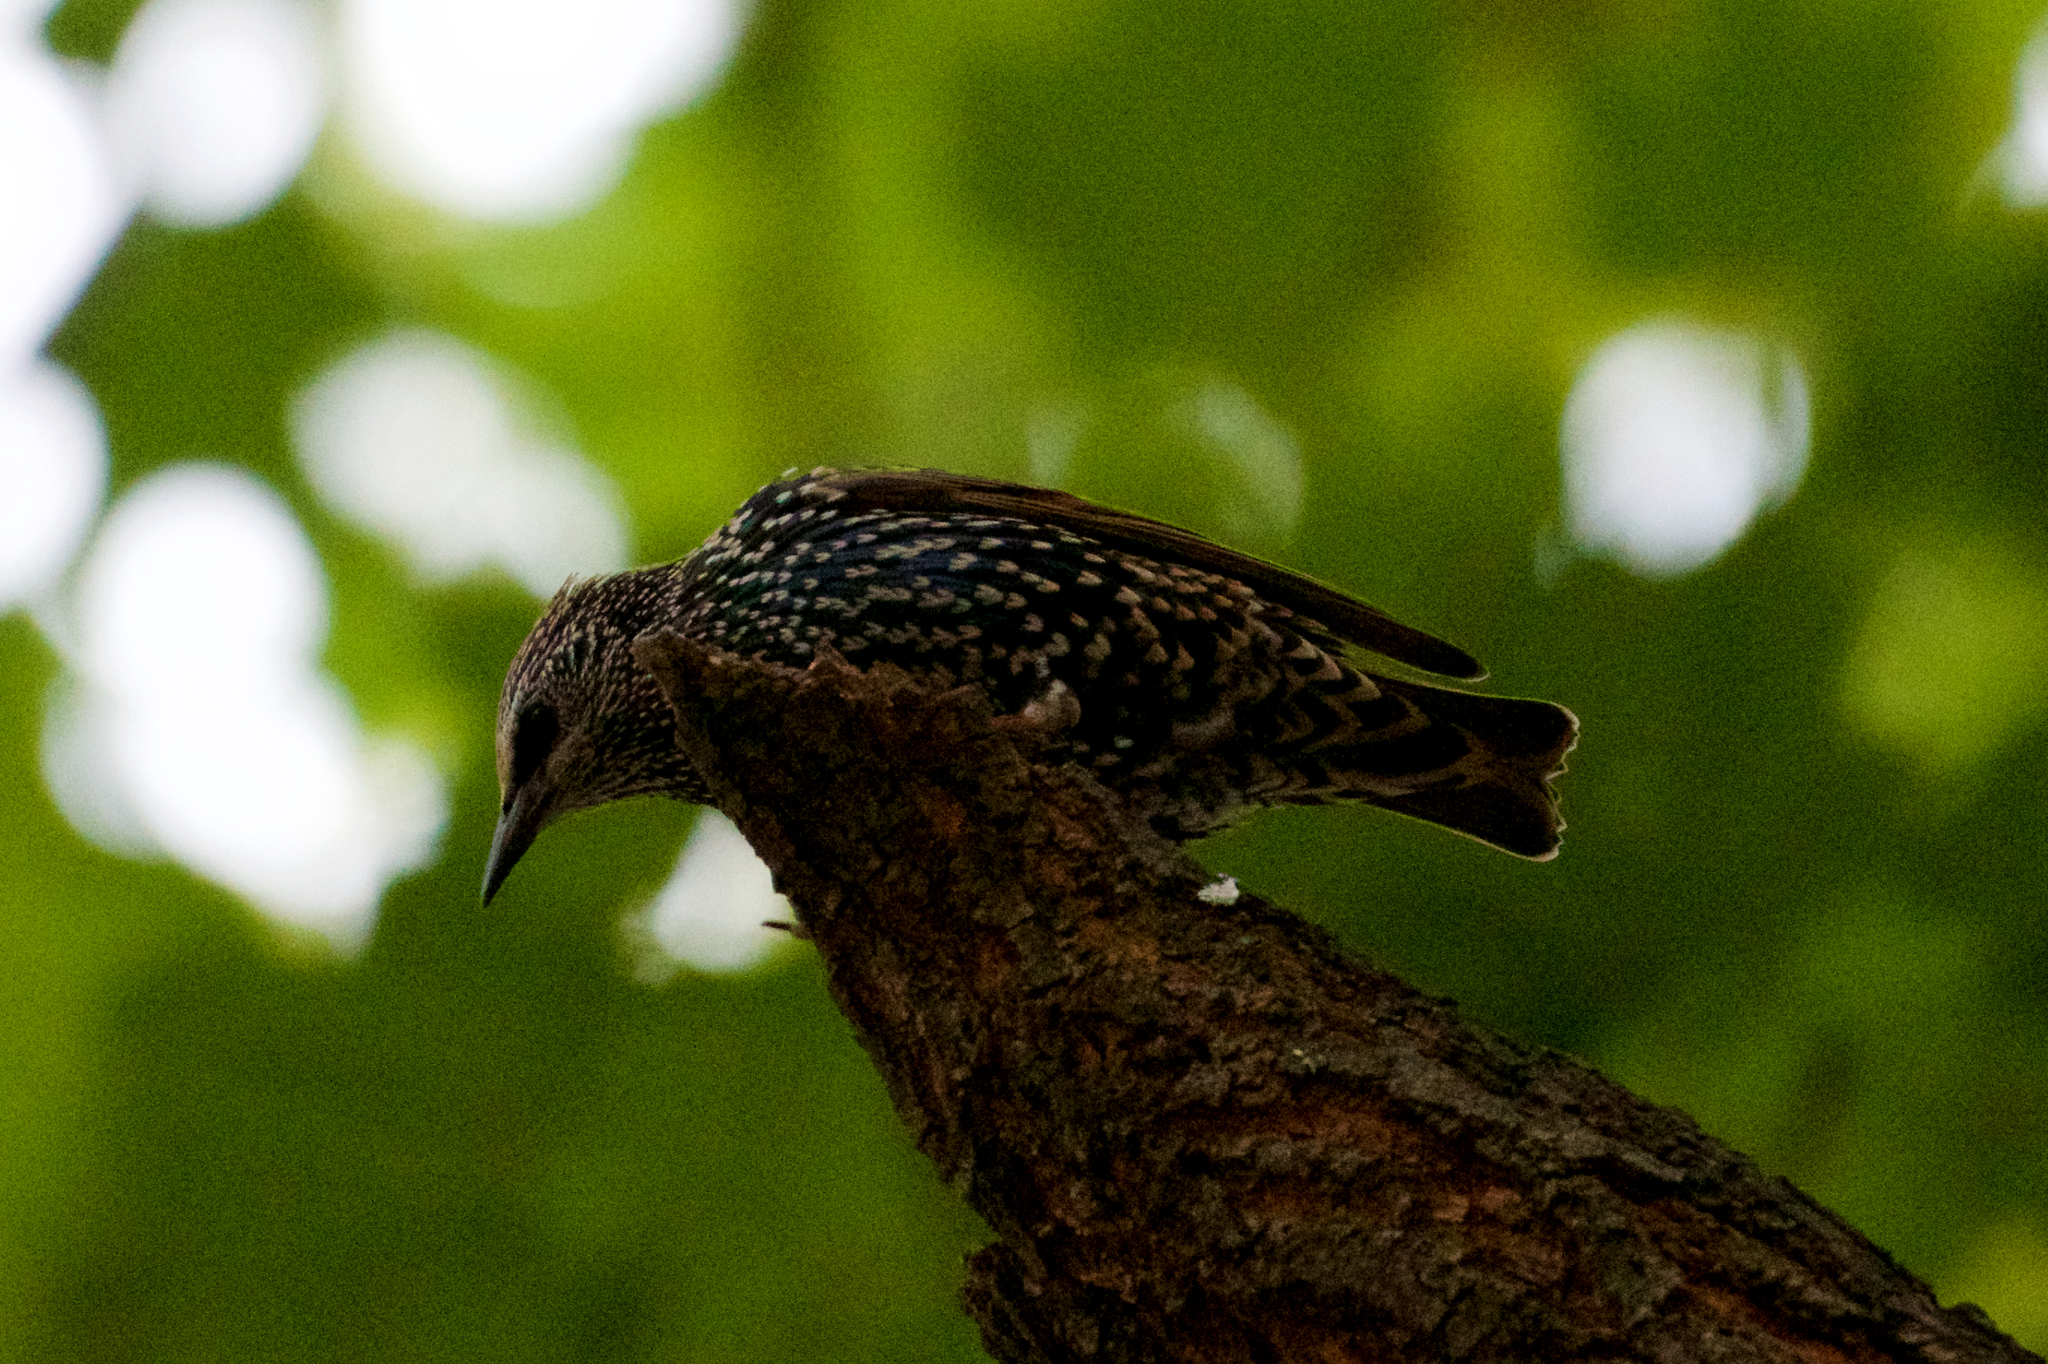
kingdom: Animalia
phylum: Chordata
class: Aves
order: Passeriformes
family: Sturnidae
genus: Sturnus
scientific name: Sturnus vulgaris
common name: Common starling
